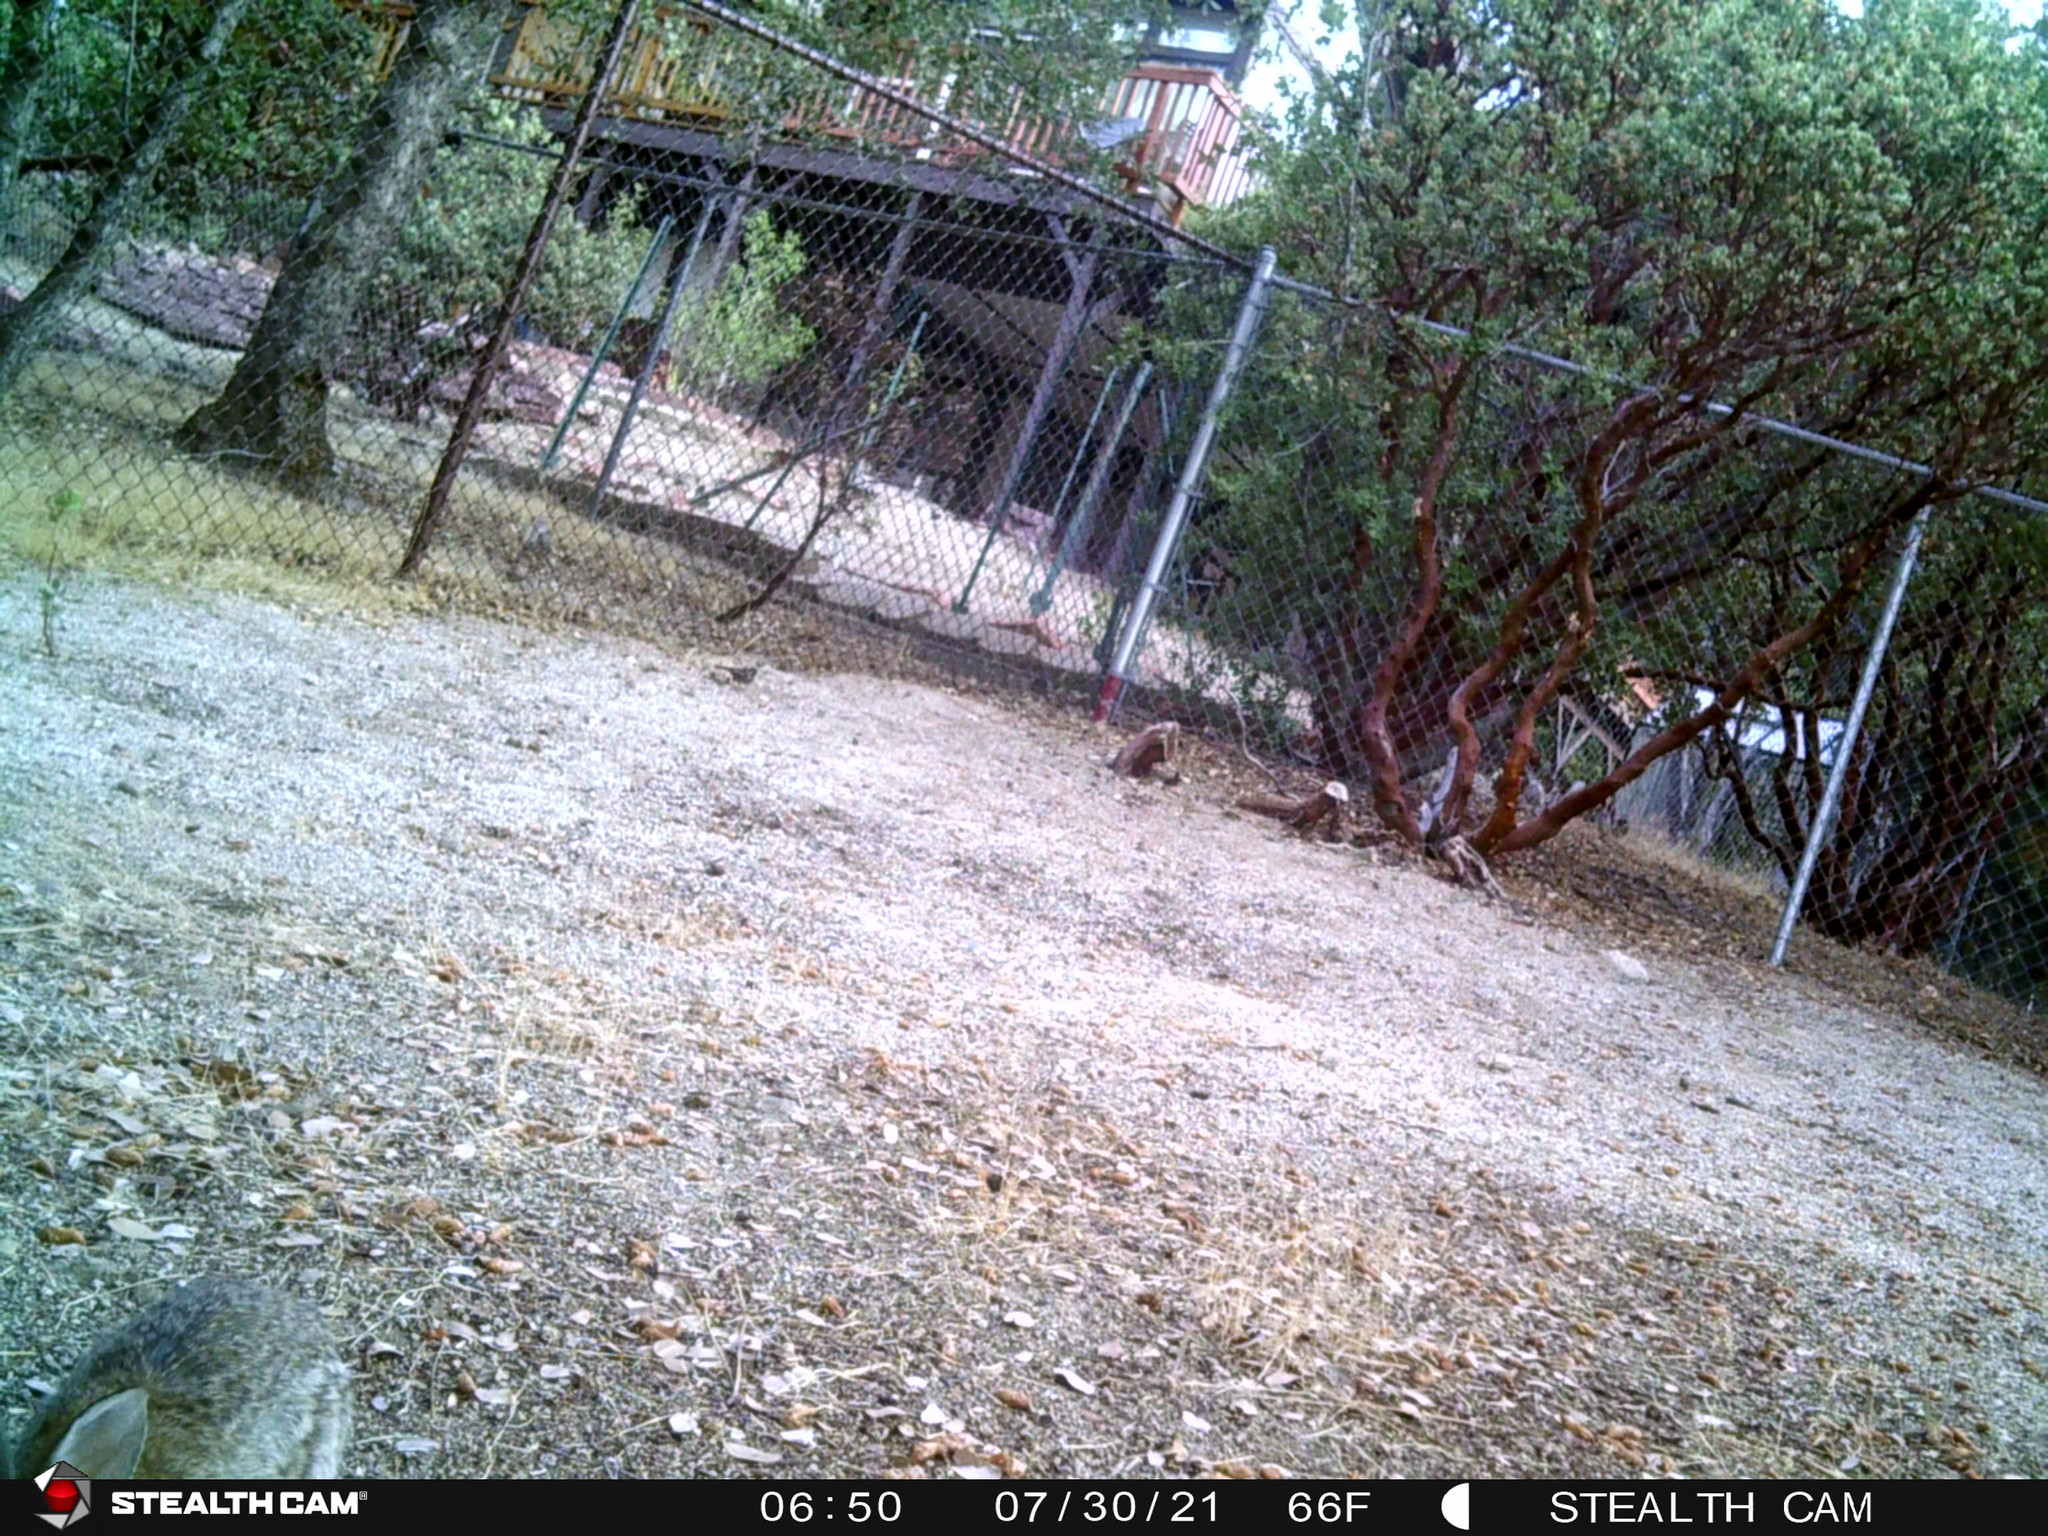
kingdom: Animalia
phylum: Chordata
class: Mammalia
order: Lagomorpha
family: Leporidae
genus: Sylvilagus
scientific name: Sylvilagus audubonii
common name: Desert cottontail
